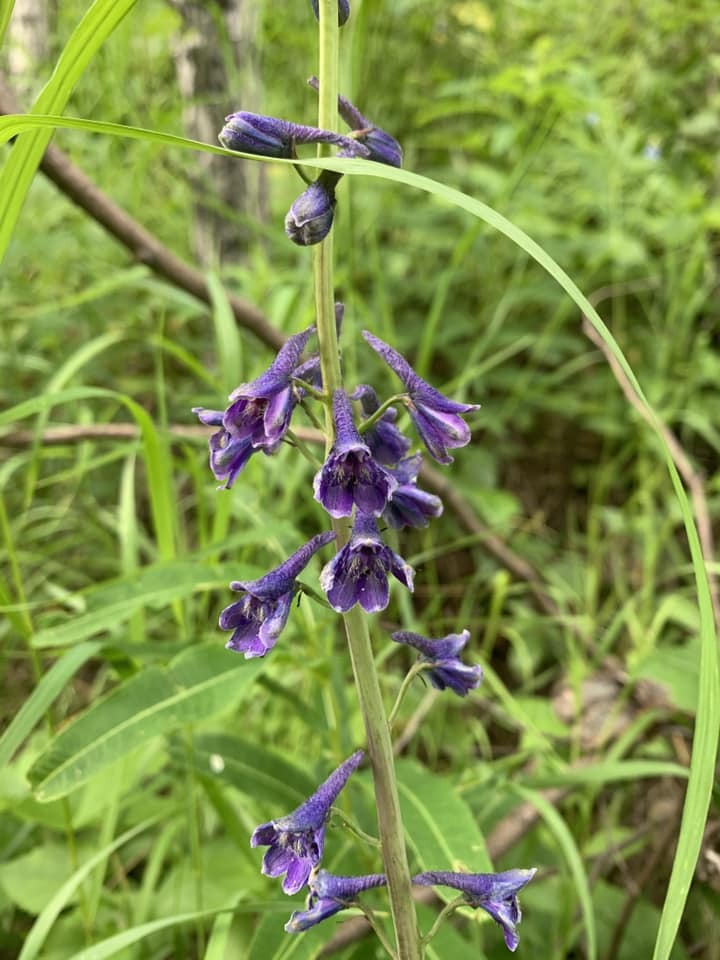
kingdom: Plantae
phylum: Tracheophyta
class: Magnoliopsida
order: Ranunculales
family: Ranunculaceae
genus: Delphinium
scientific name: Delphinium glaucum
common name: Brown's larkspur
